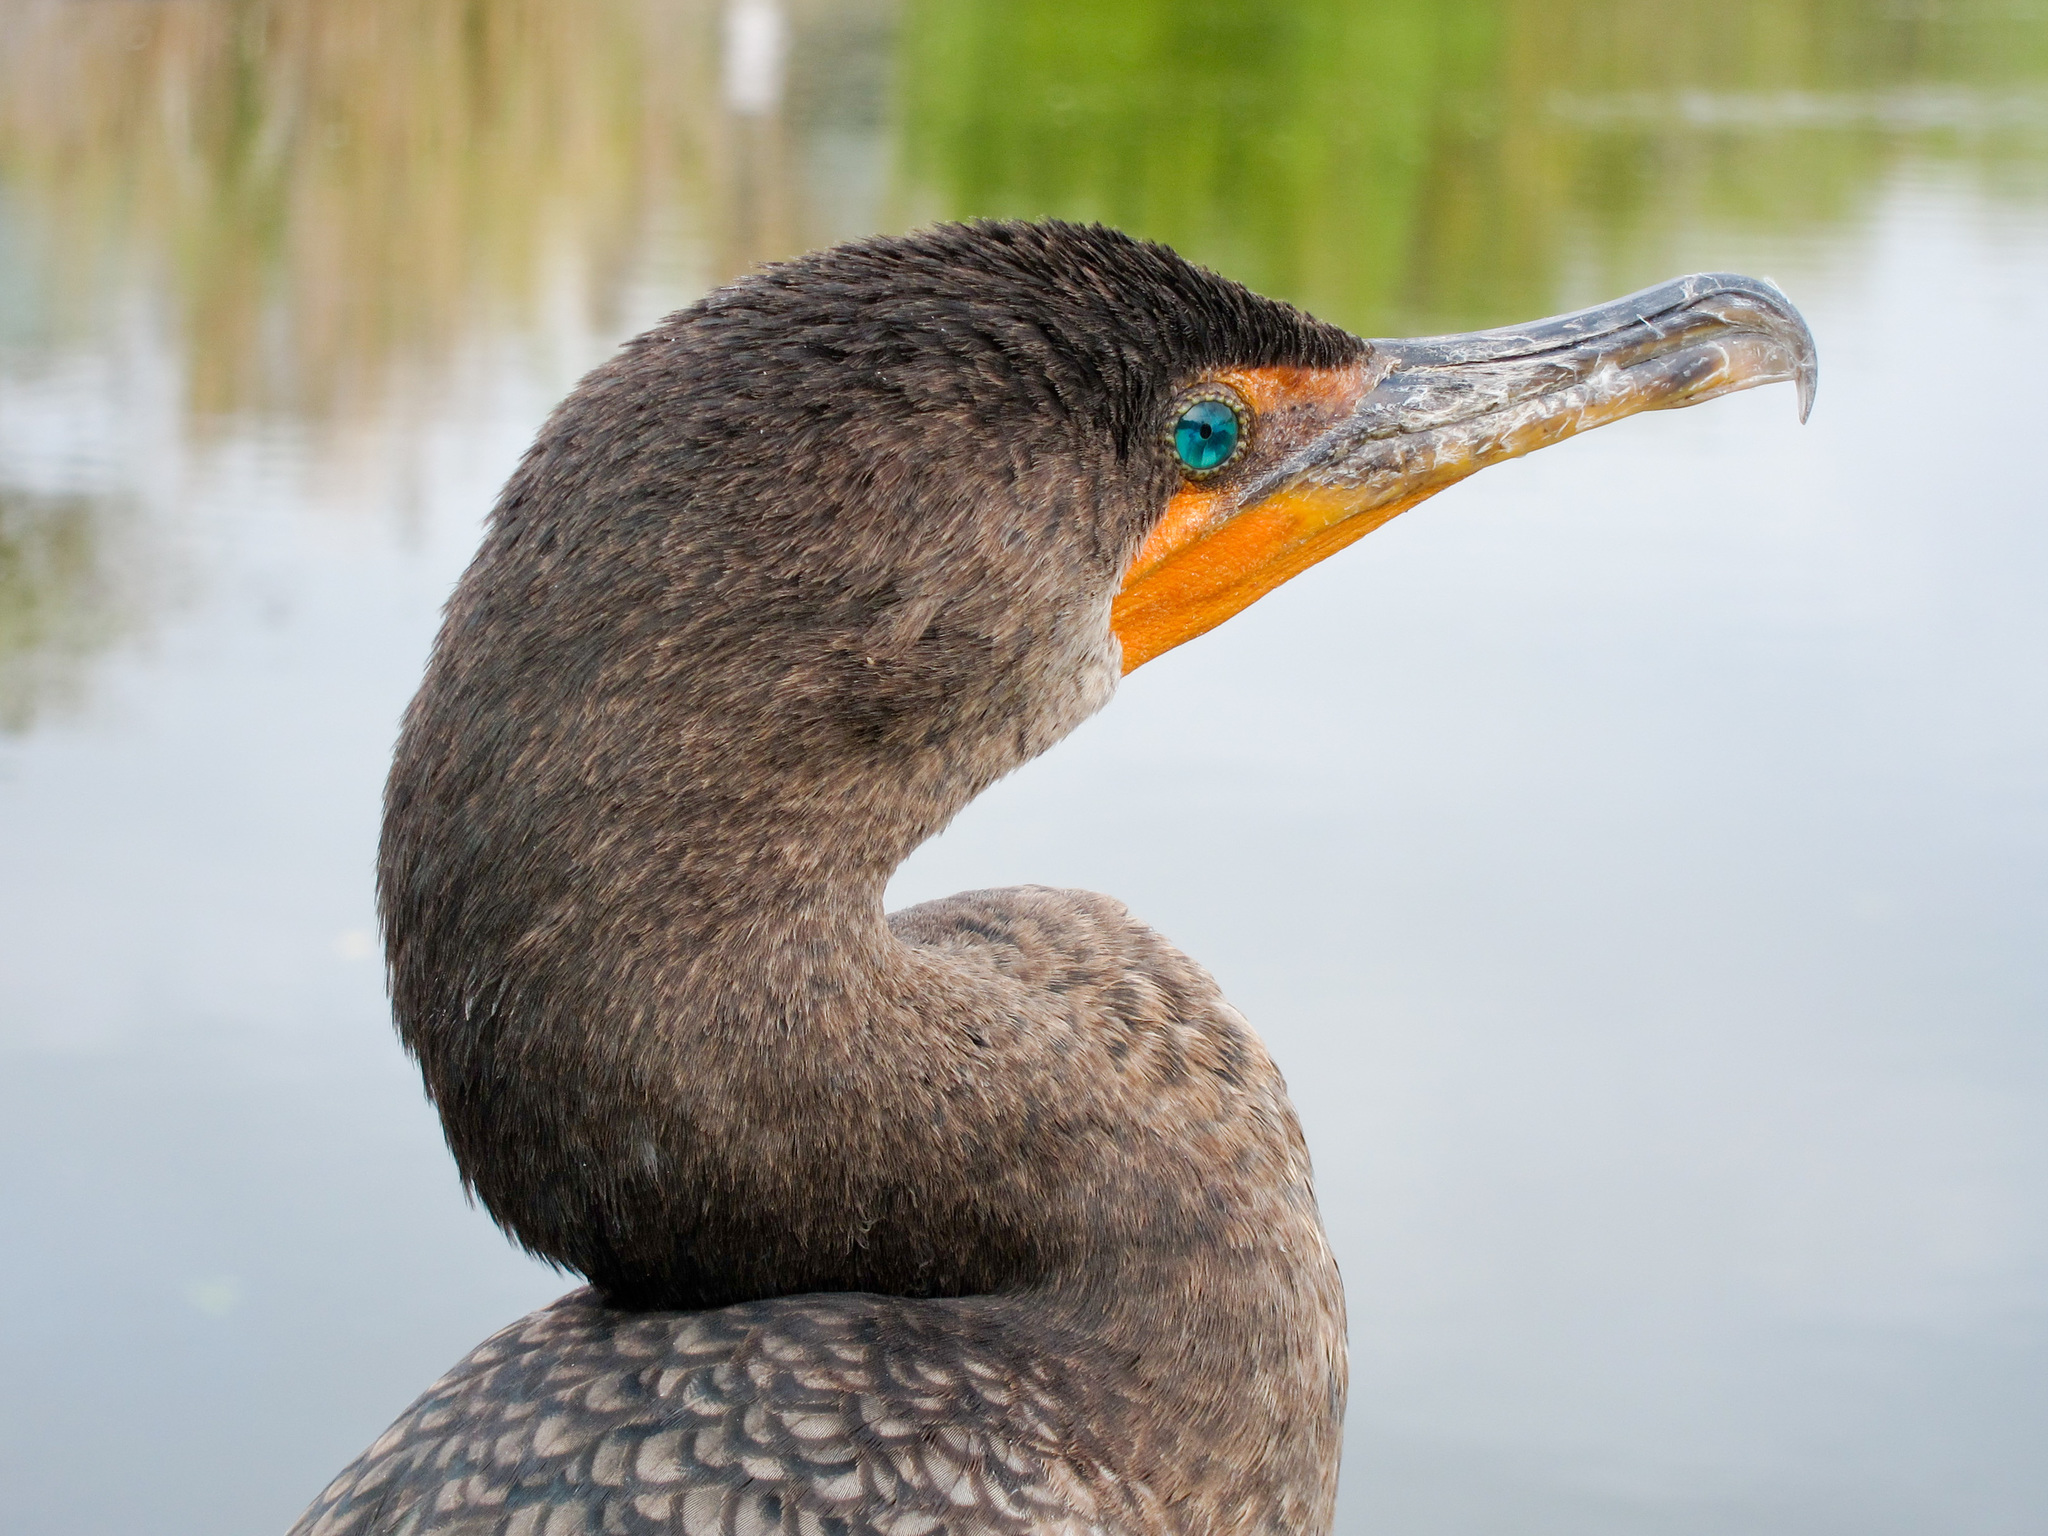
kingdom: Animalia
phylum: Chordata
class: Aves
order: Suliformes
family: Phalacrocoracidae
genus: Phalacrocorax
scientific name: Phalacrocorax auritus
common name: Double-crested cormorant
